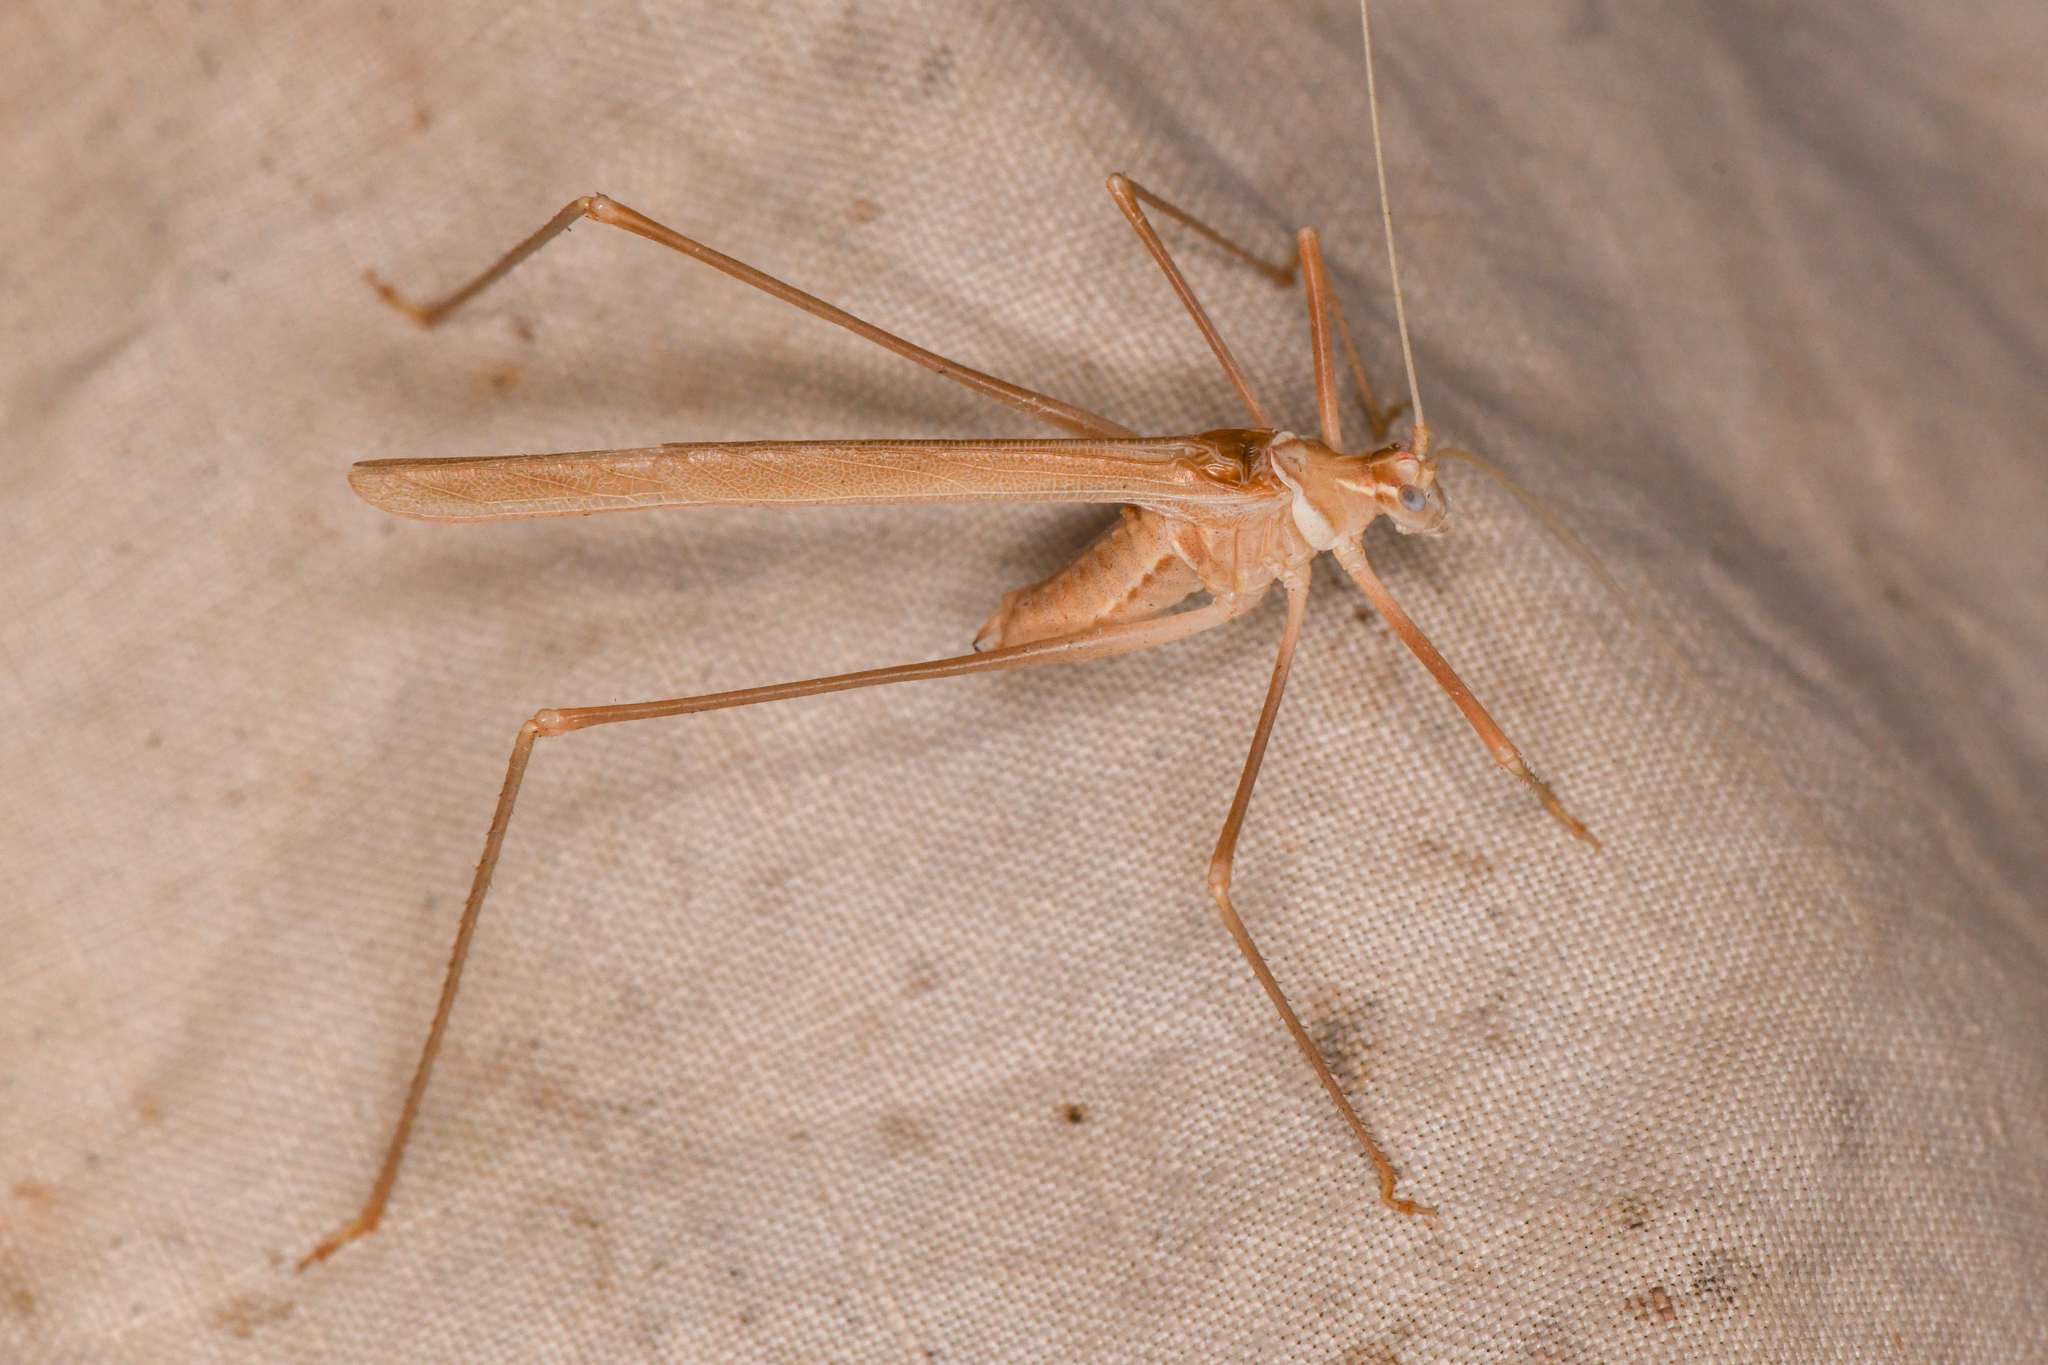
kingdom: Animalia
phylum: Arthropoda
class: Insecta
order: Orthoptera
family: Tettigoniidae
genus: Arethaea
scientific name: Arethaea brevicauda
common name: Short-tail thread-legged katydid
